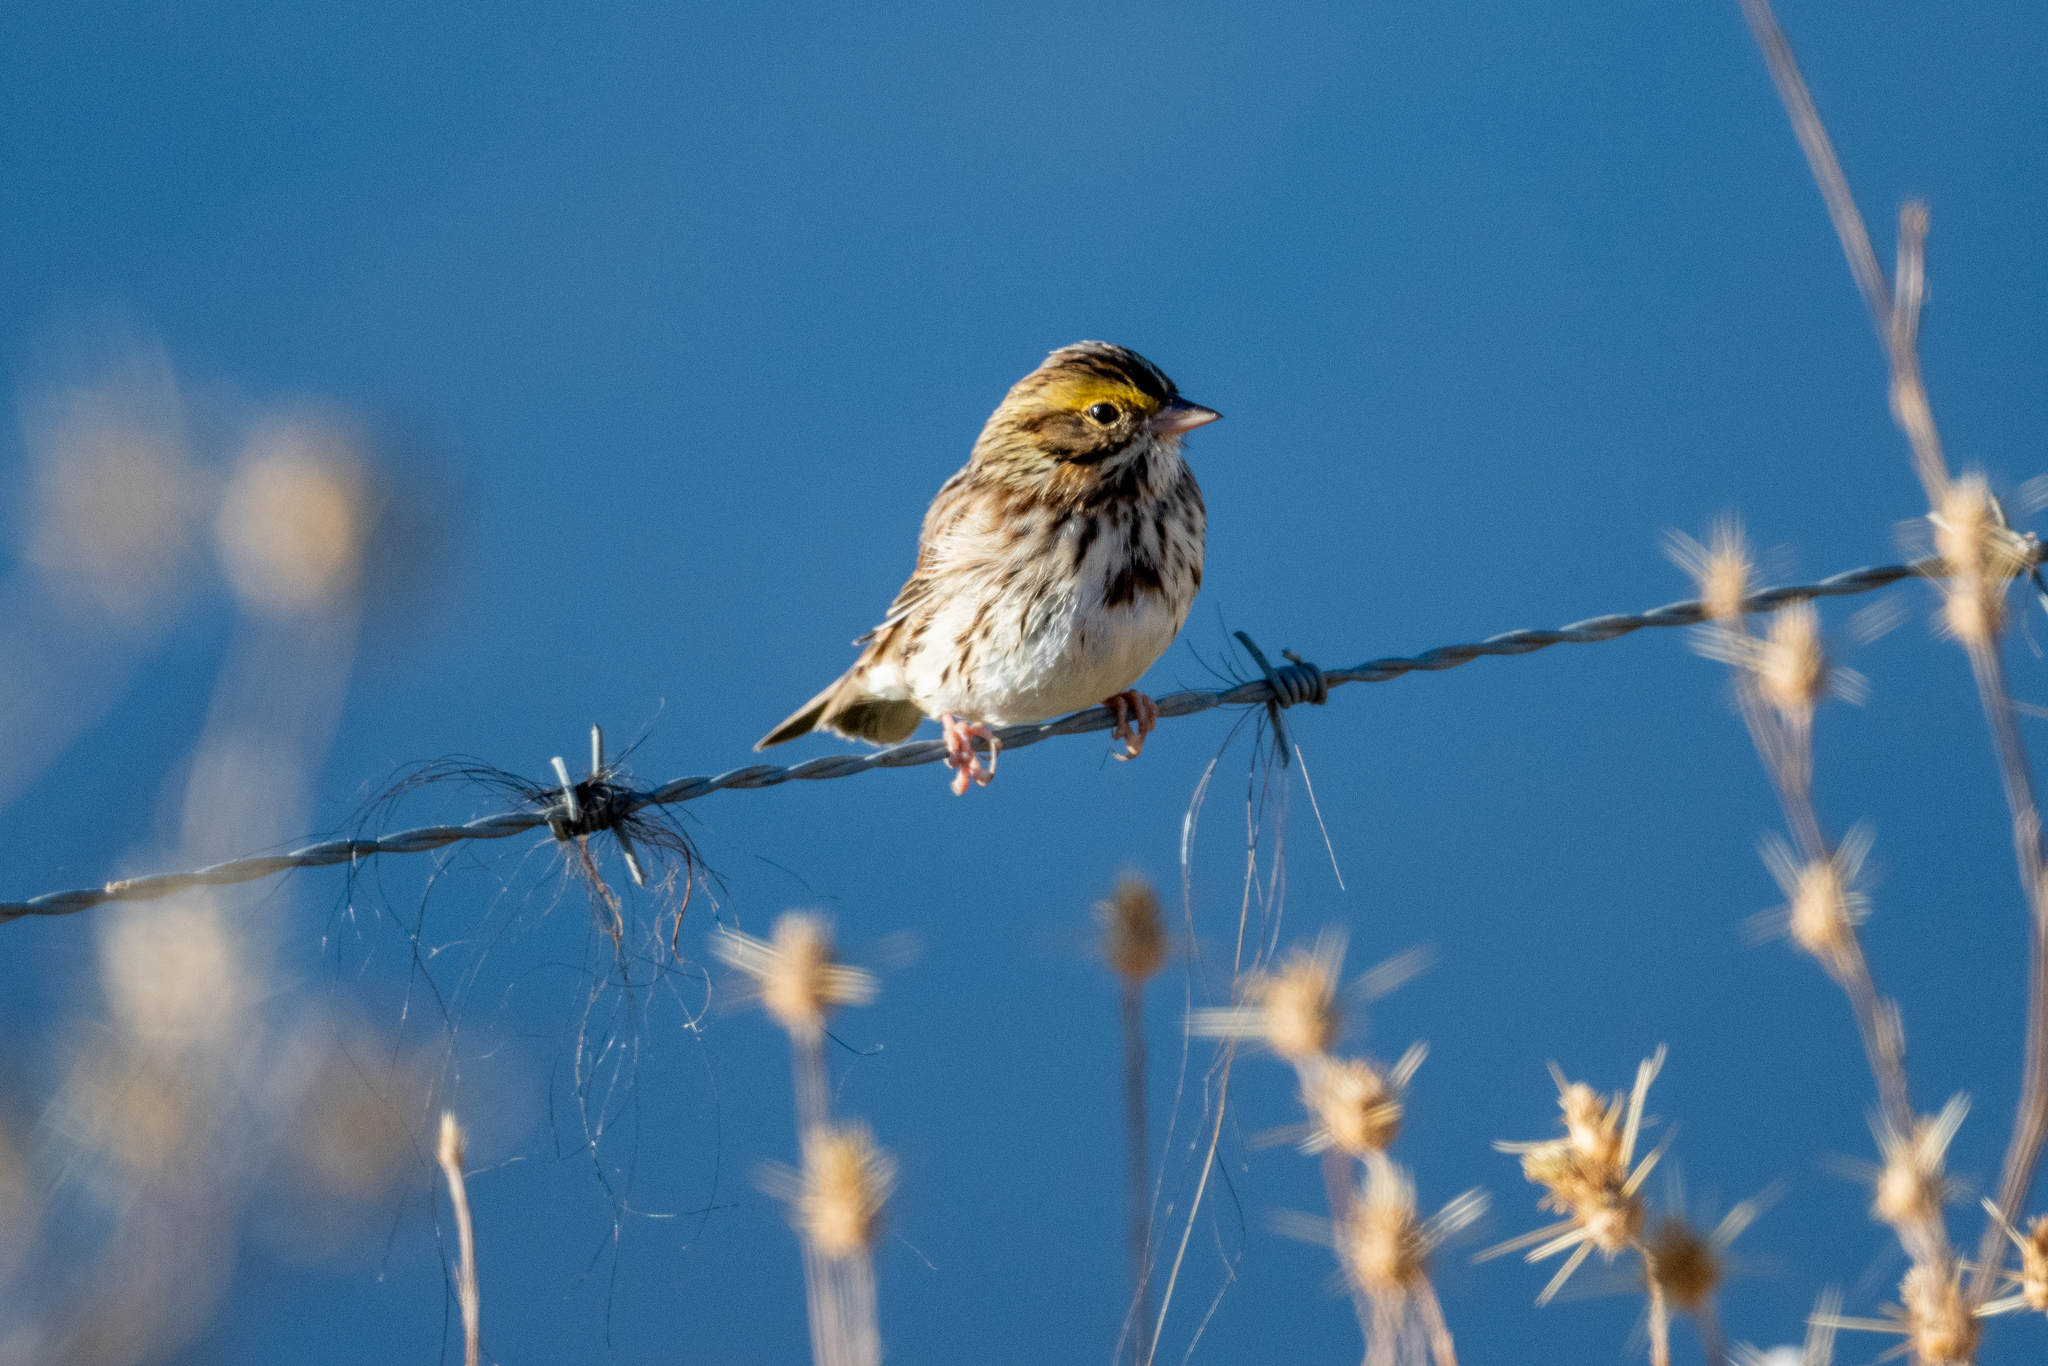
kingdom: Animalia
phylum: Chordata
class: Aves
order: Passeriformes
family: Passerellidae
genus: Passerculus
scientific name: Passerculus sandwichensis
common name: Savannah sparrow
